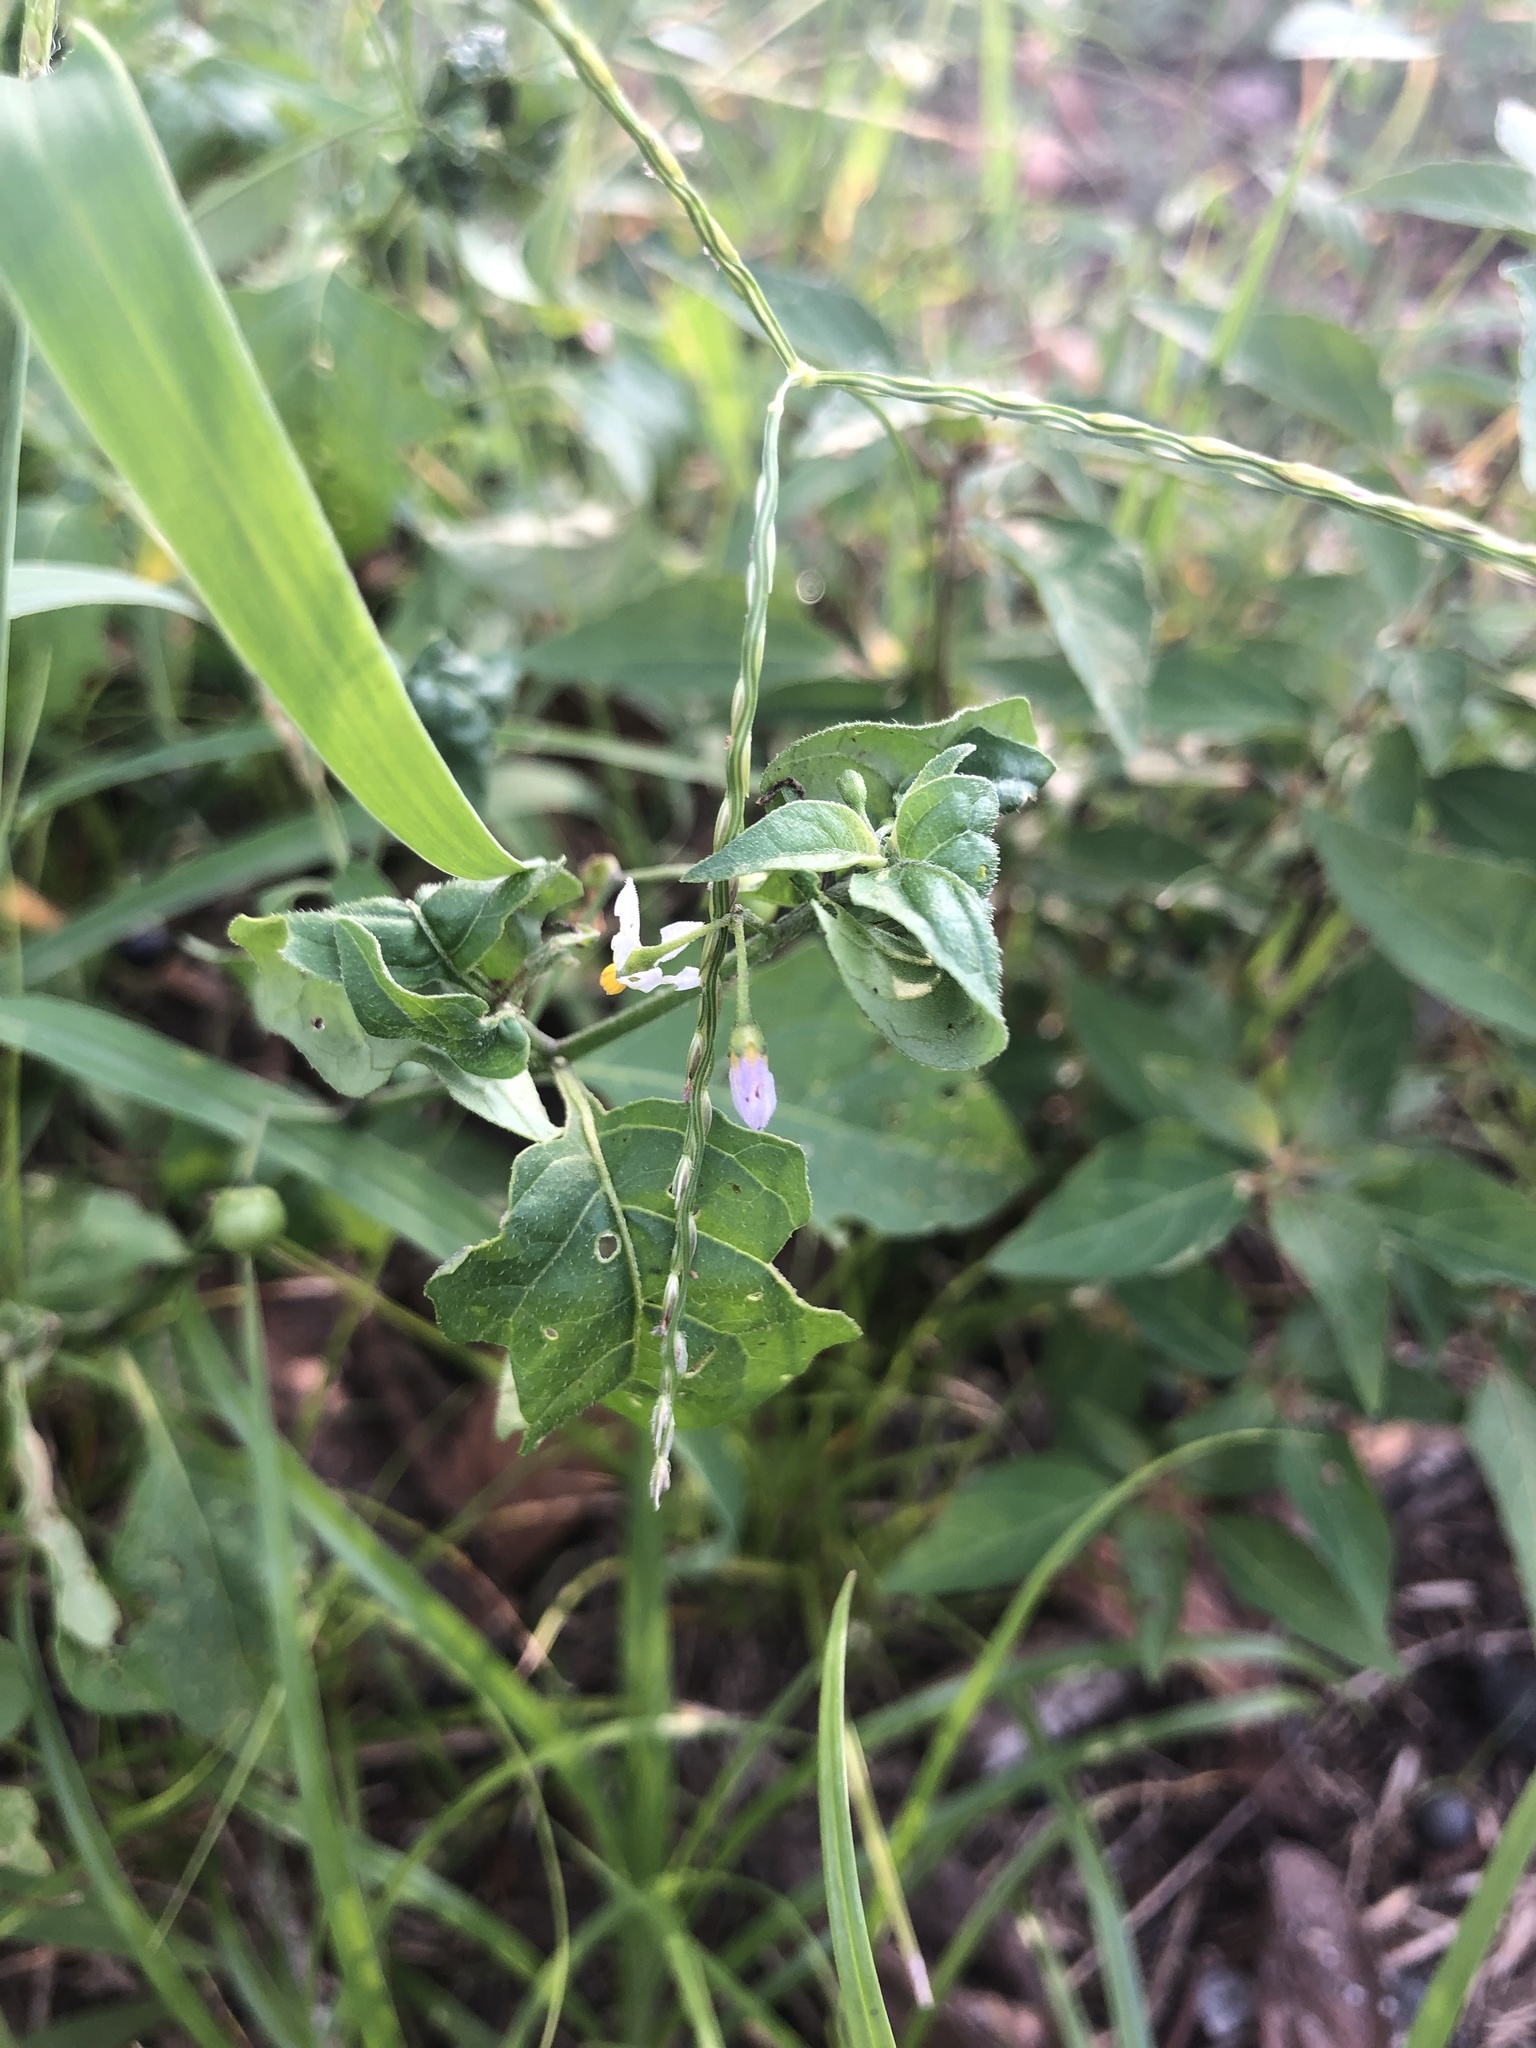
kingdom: Plantae
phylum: Tracheophyta
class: Magnoliopsida
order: Solanales
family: Solanaceae
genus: Solanum
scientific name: Solanum emulans
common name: Eastern black nightshade
